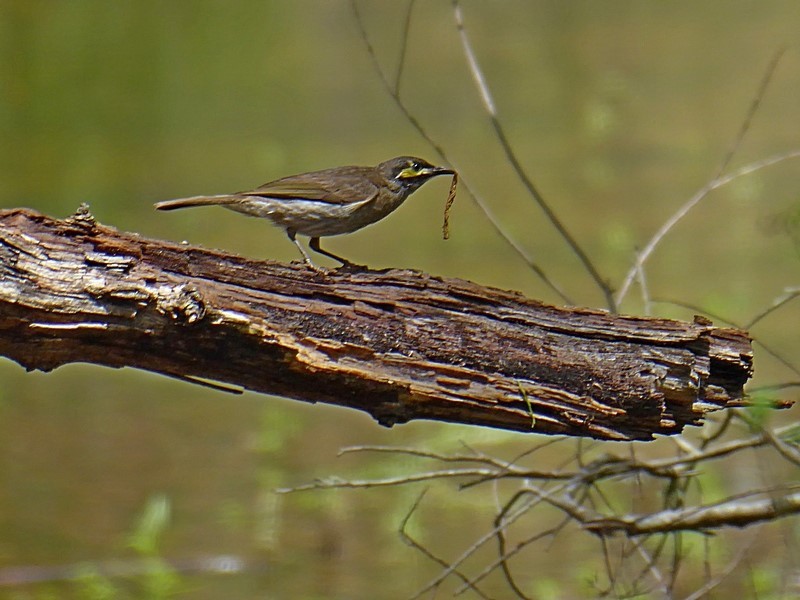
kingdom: Animalia
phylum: Chordata
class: Aves
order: Passeriformes
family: Meliphagidae
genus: Caligavis
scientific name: Caligavis chrysops
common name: Yellow-faced honeyeater
